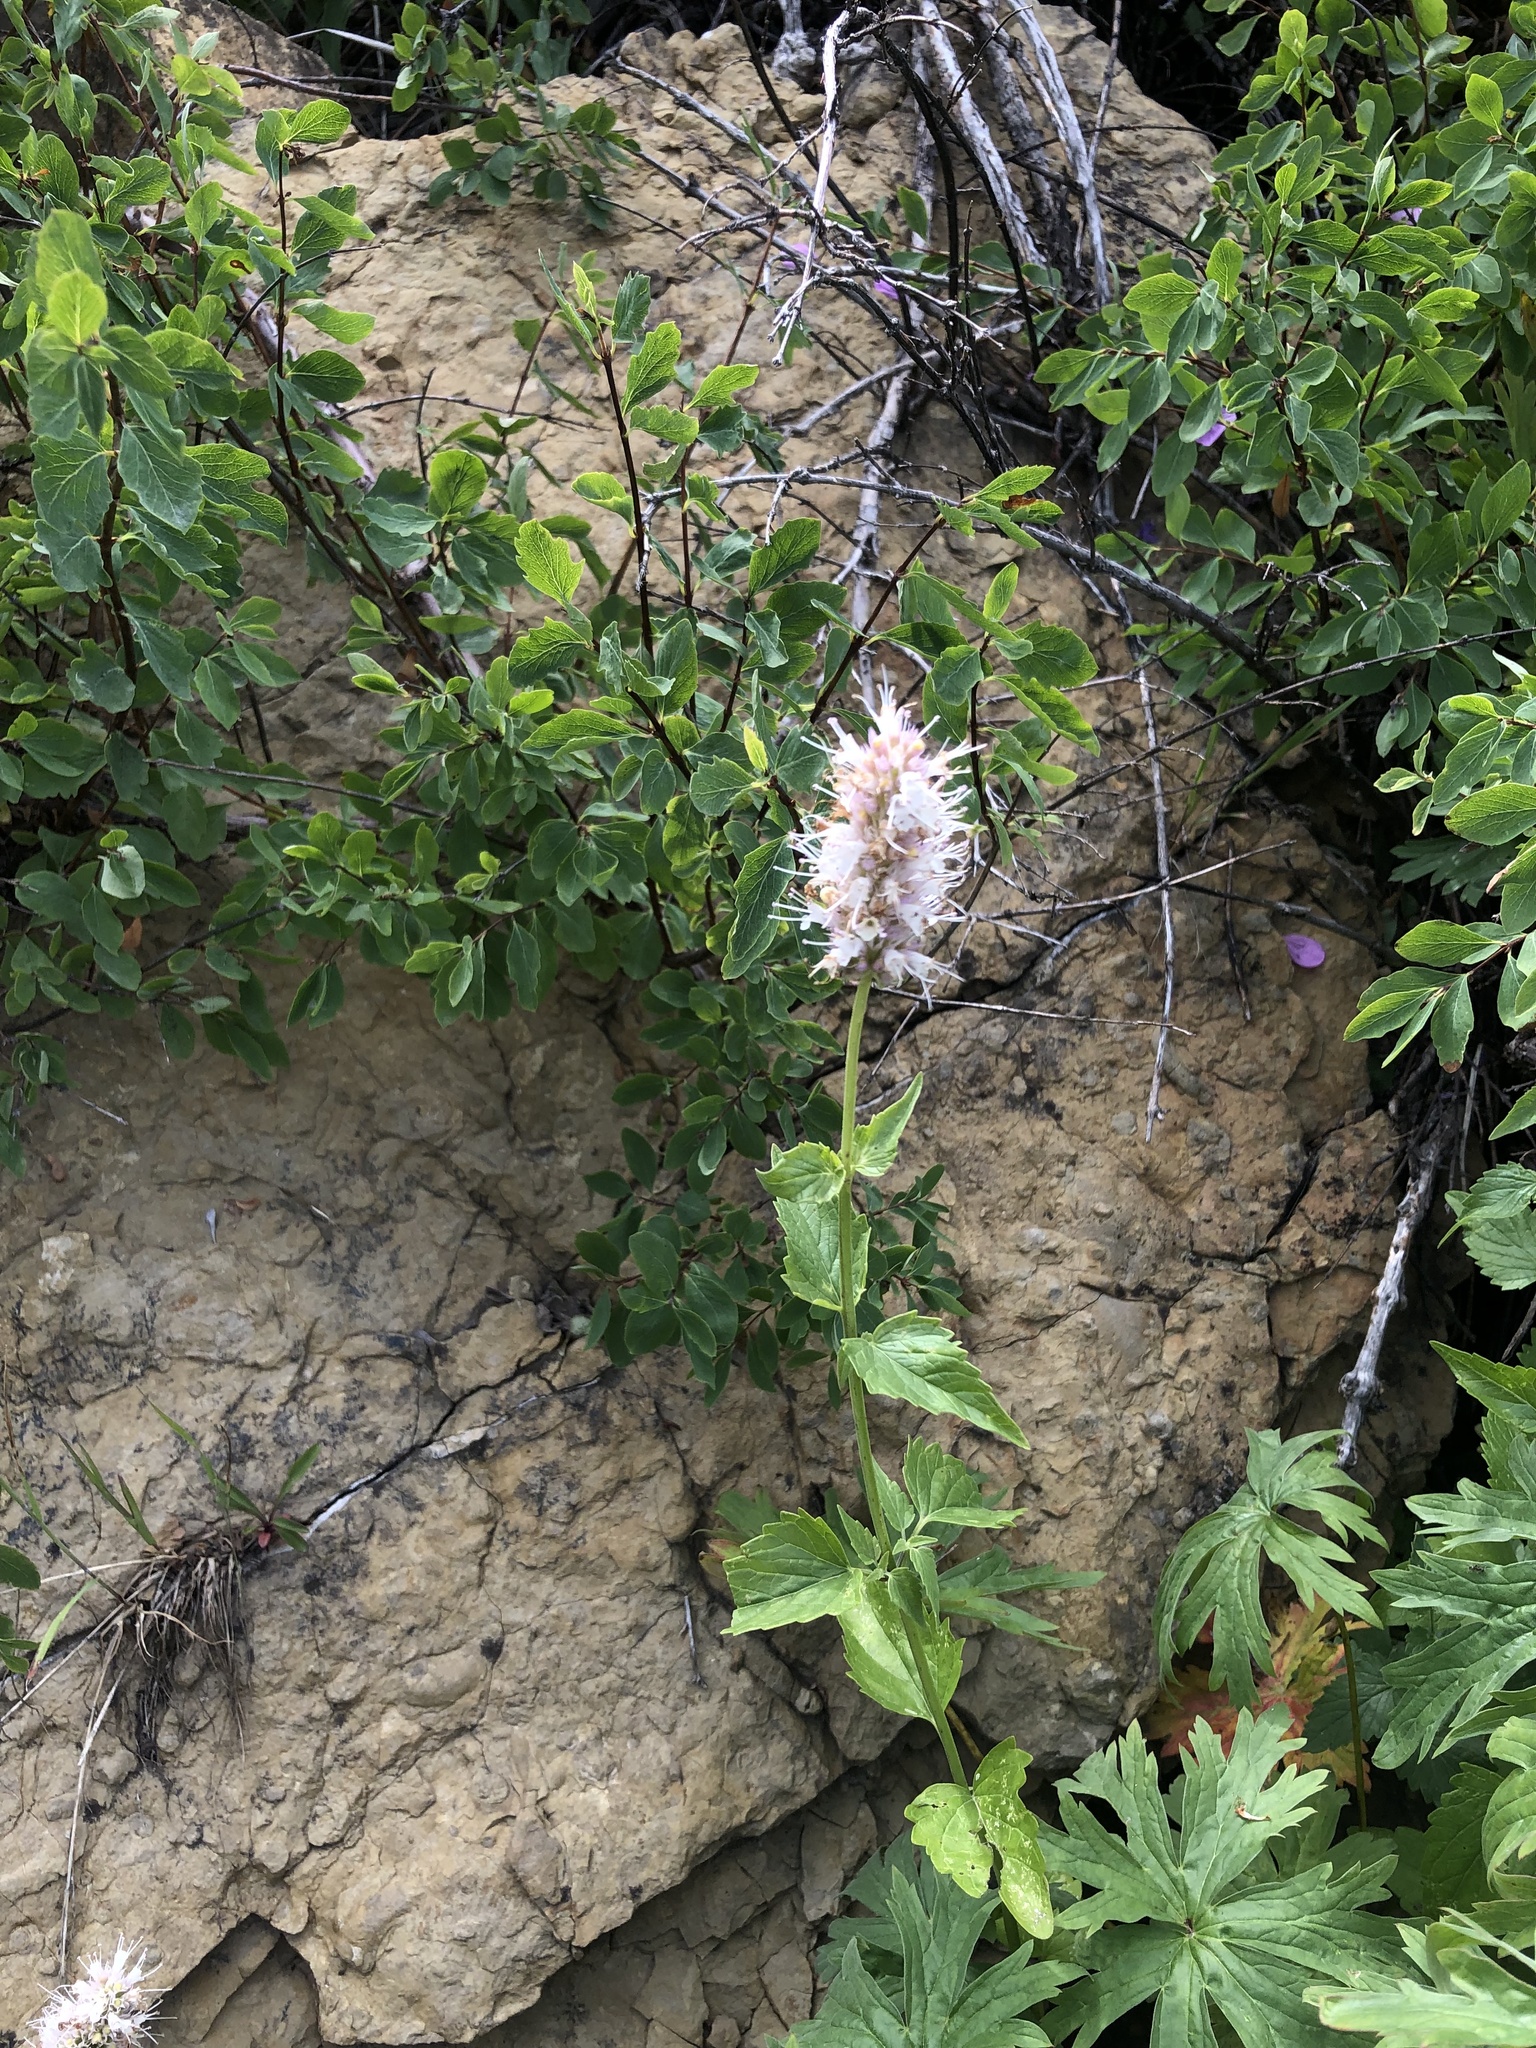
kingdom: Plantae
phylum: Tracheophyta
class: Magnoliopsida
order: Lamiales
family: Lamiaceae
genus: Agastache
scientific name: Agastache urticifolia
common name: Horsemint giant hyssop
